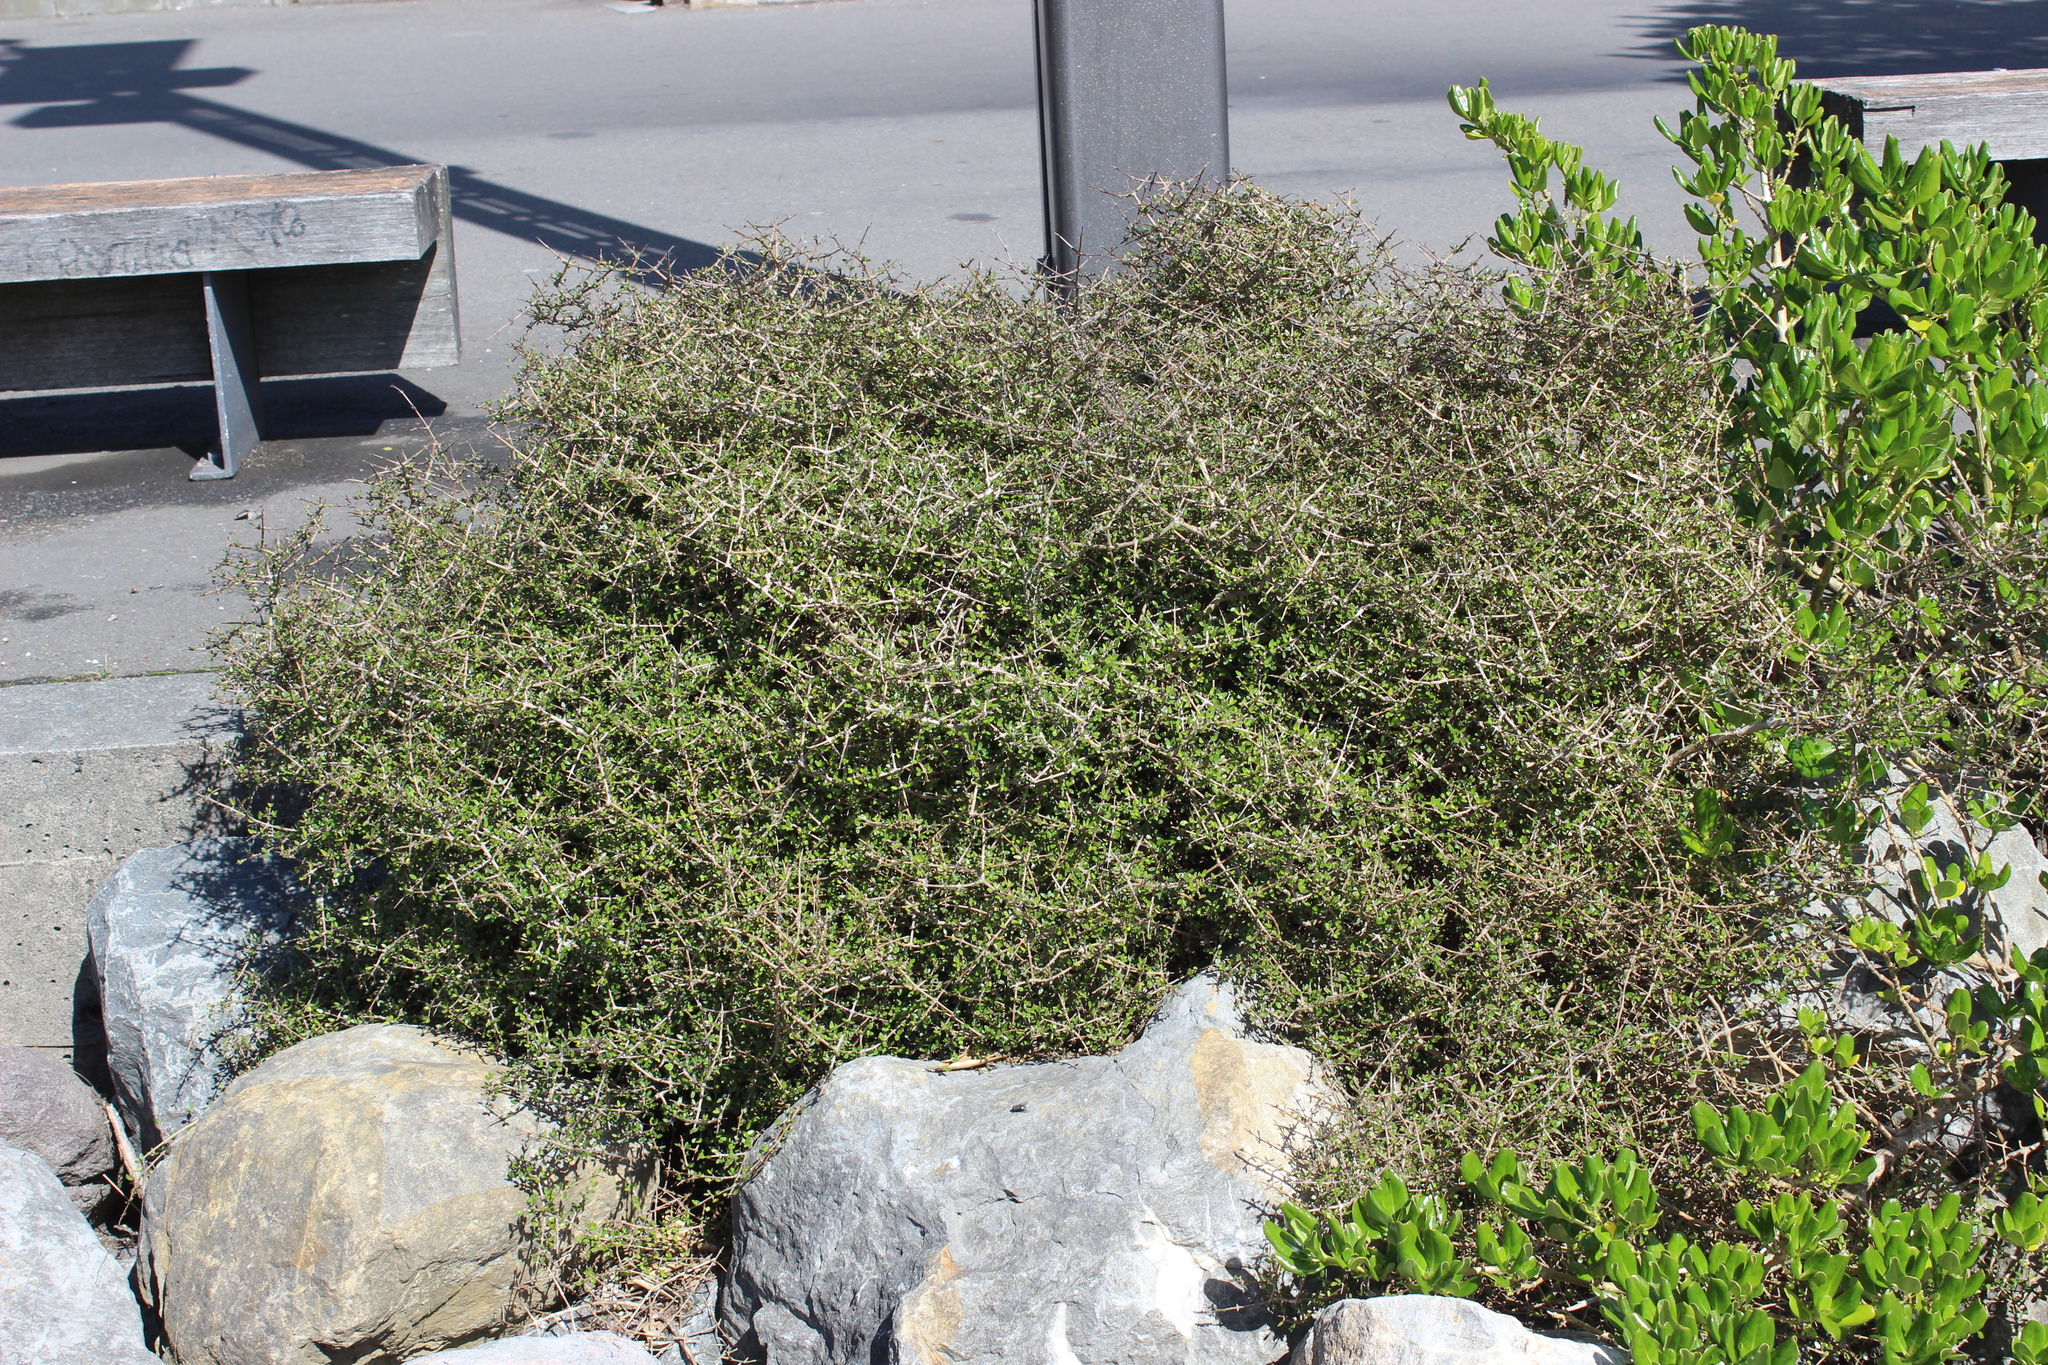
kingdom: Plantae
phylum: Tracheophyta
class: Magnoliopsida
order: Gentianales
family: Rubiaceae
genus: Coprosma
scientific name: Coprosma propinqua
